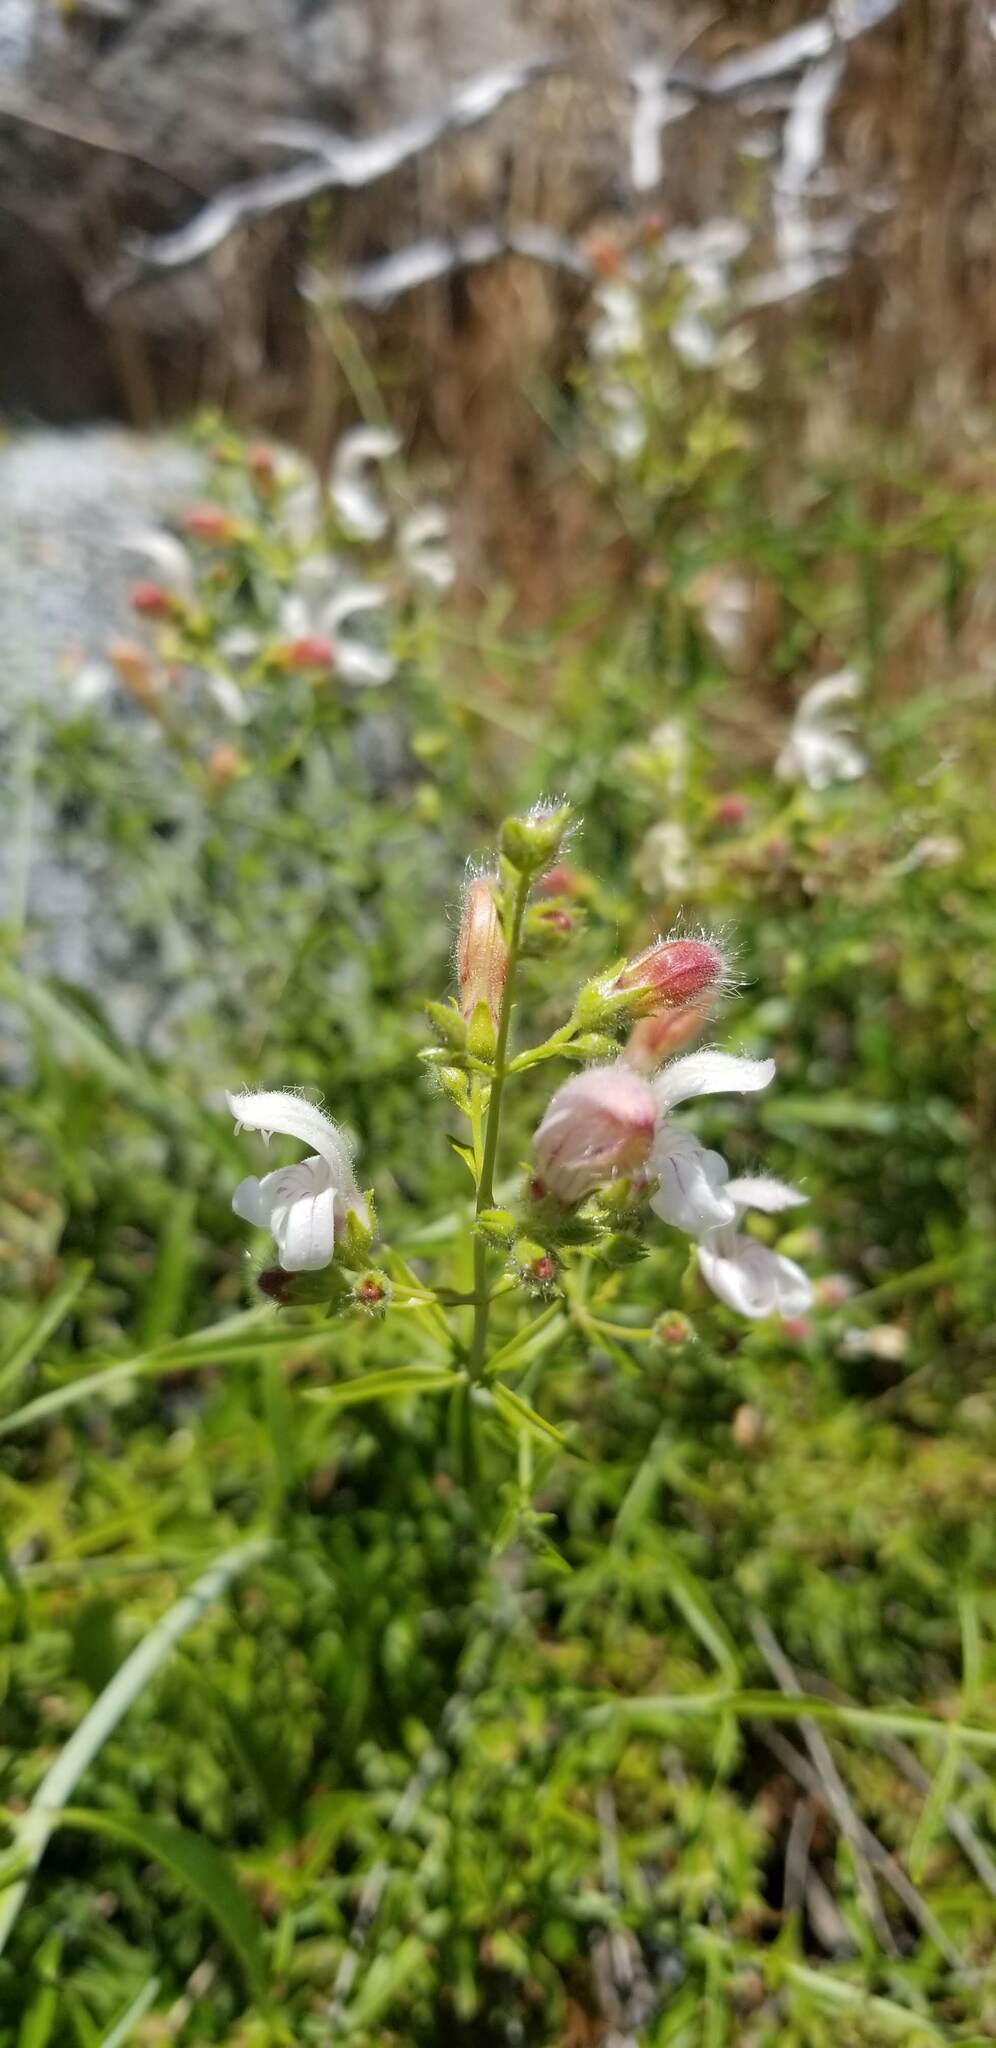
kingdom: Plantae
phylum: Tracheophyta
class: Magnoliopsida
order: Lamiales
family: Plantaginaceae
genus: Keckiella
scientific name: Keckiella breviflora
